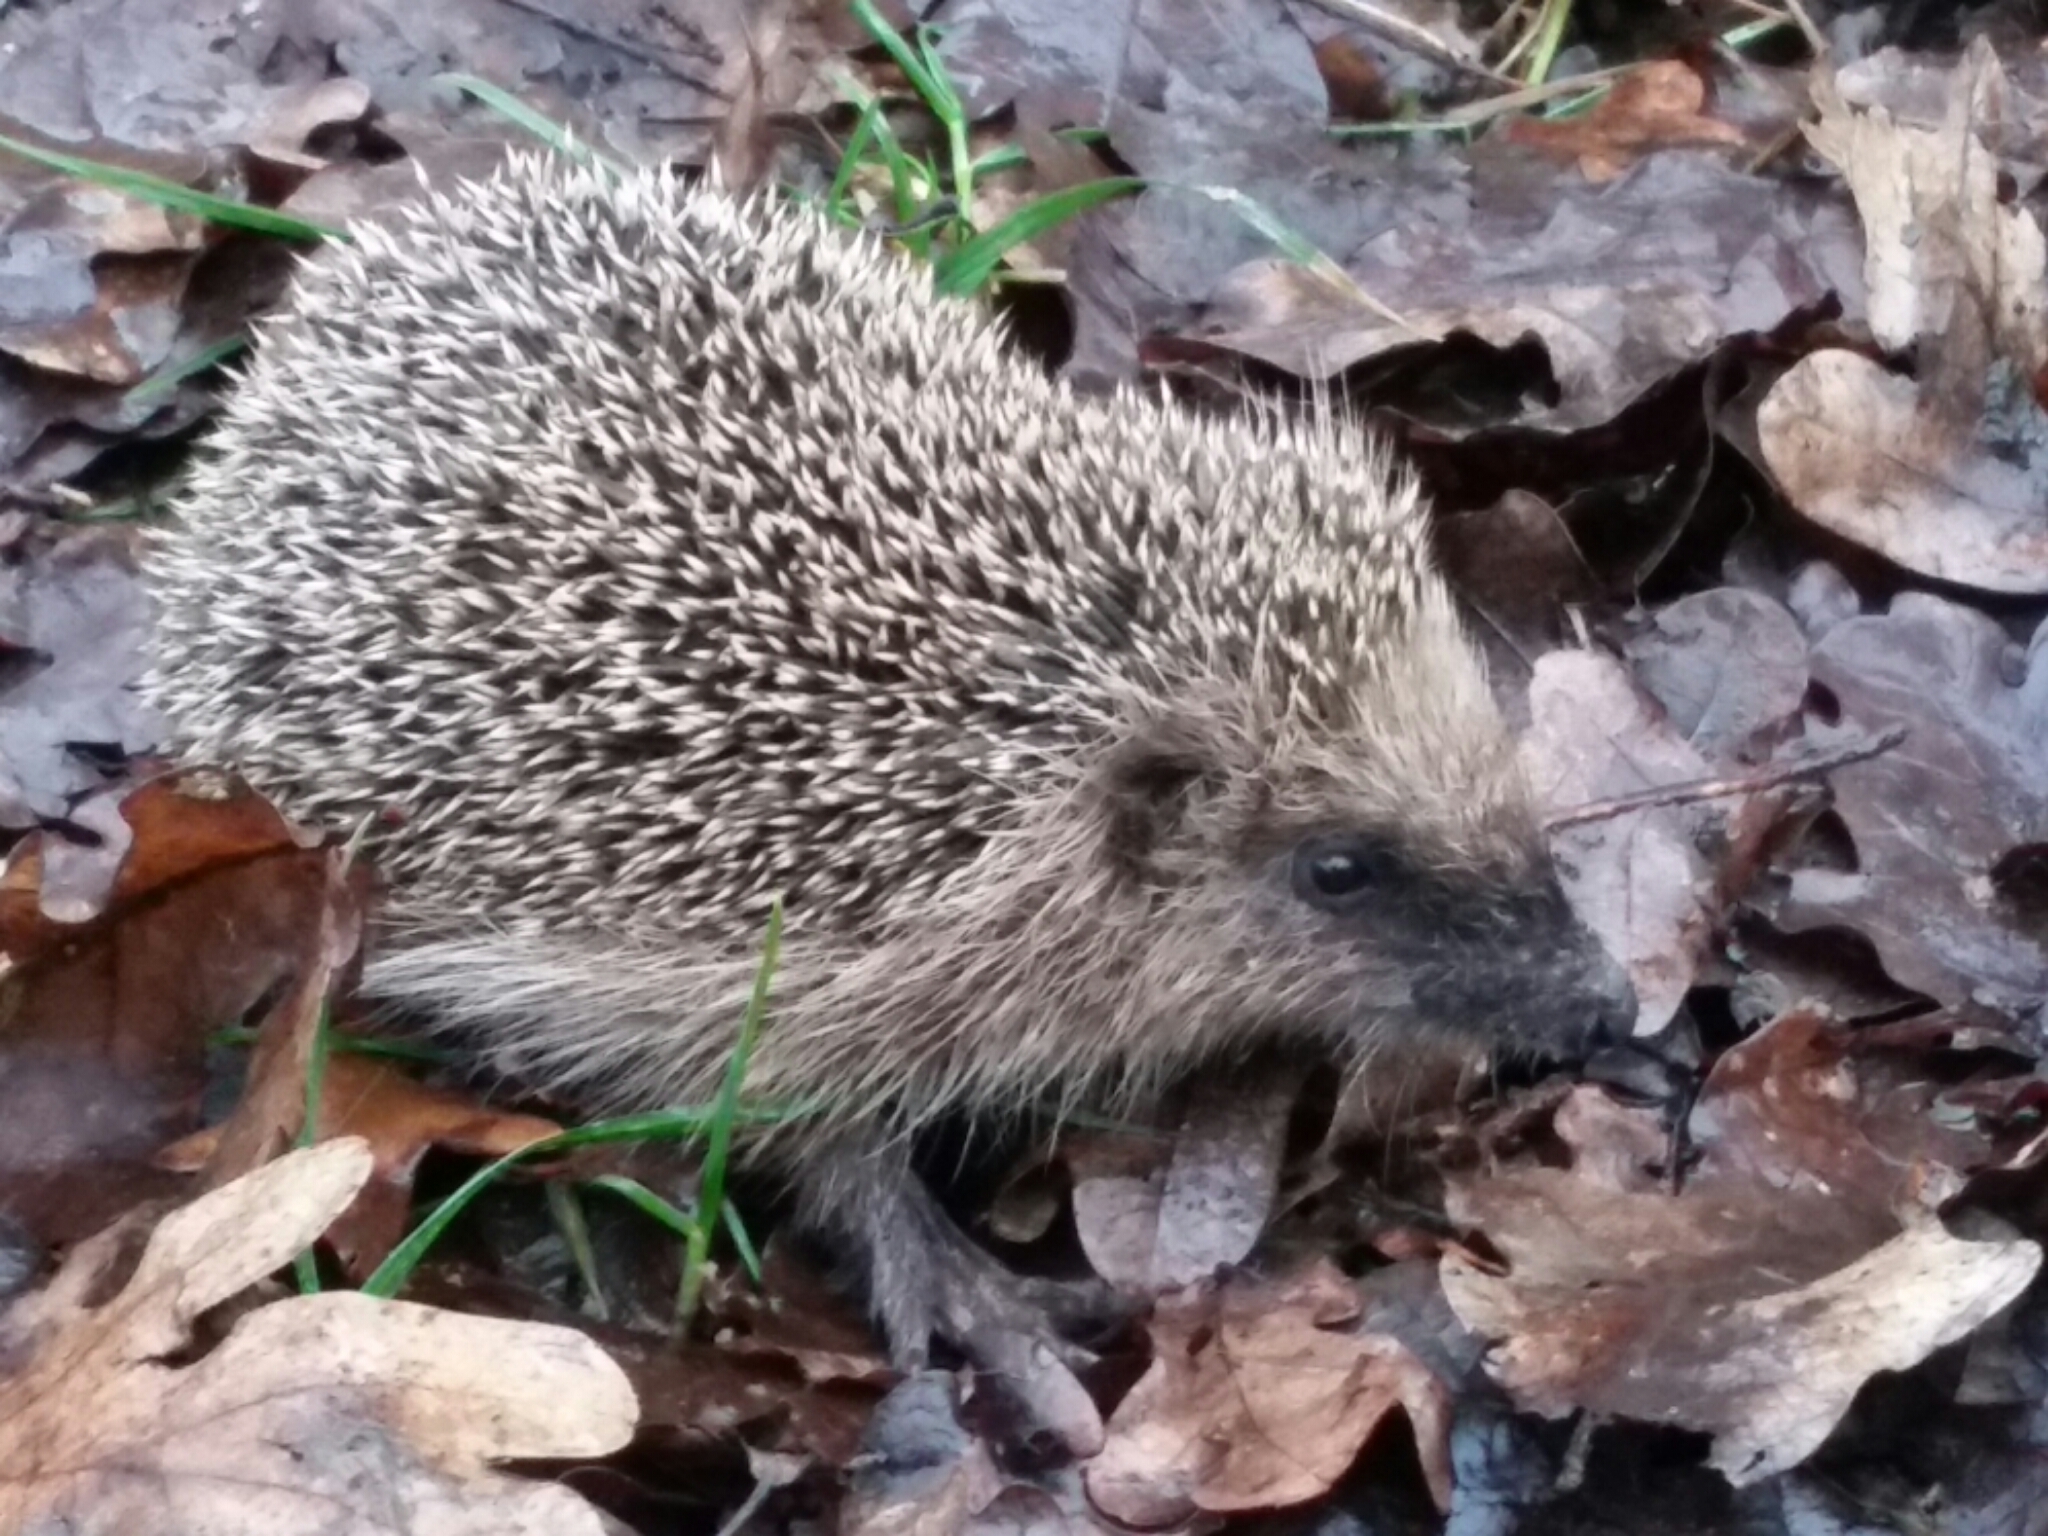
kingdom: Animalia
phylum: Chordata
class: Mammalia
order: Erinaceomorpha
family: Erinaceidae
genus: Erinaceus
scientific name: Erinaceus europaeus
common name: West european hedgehog
